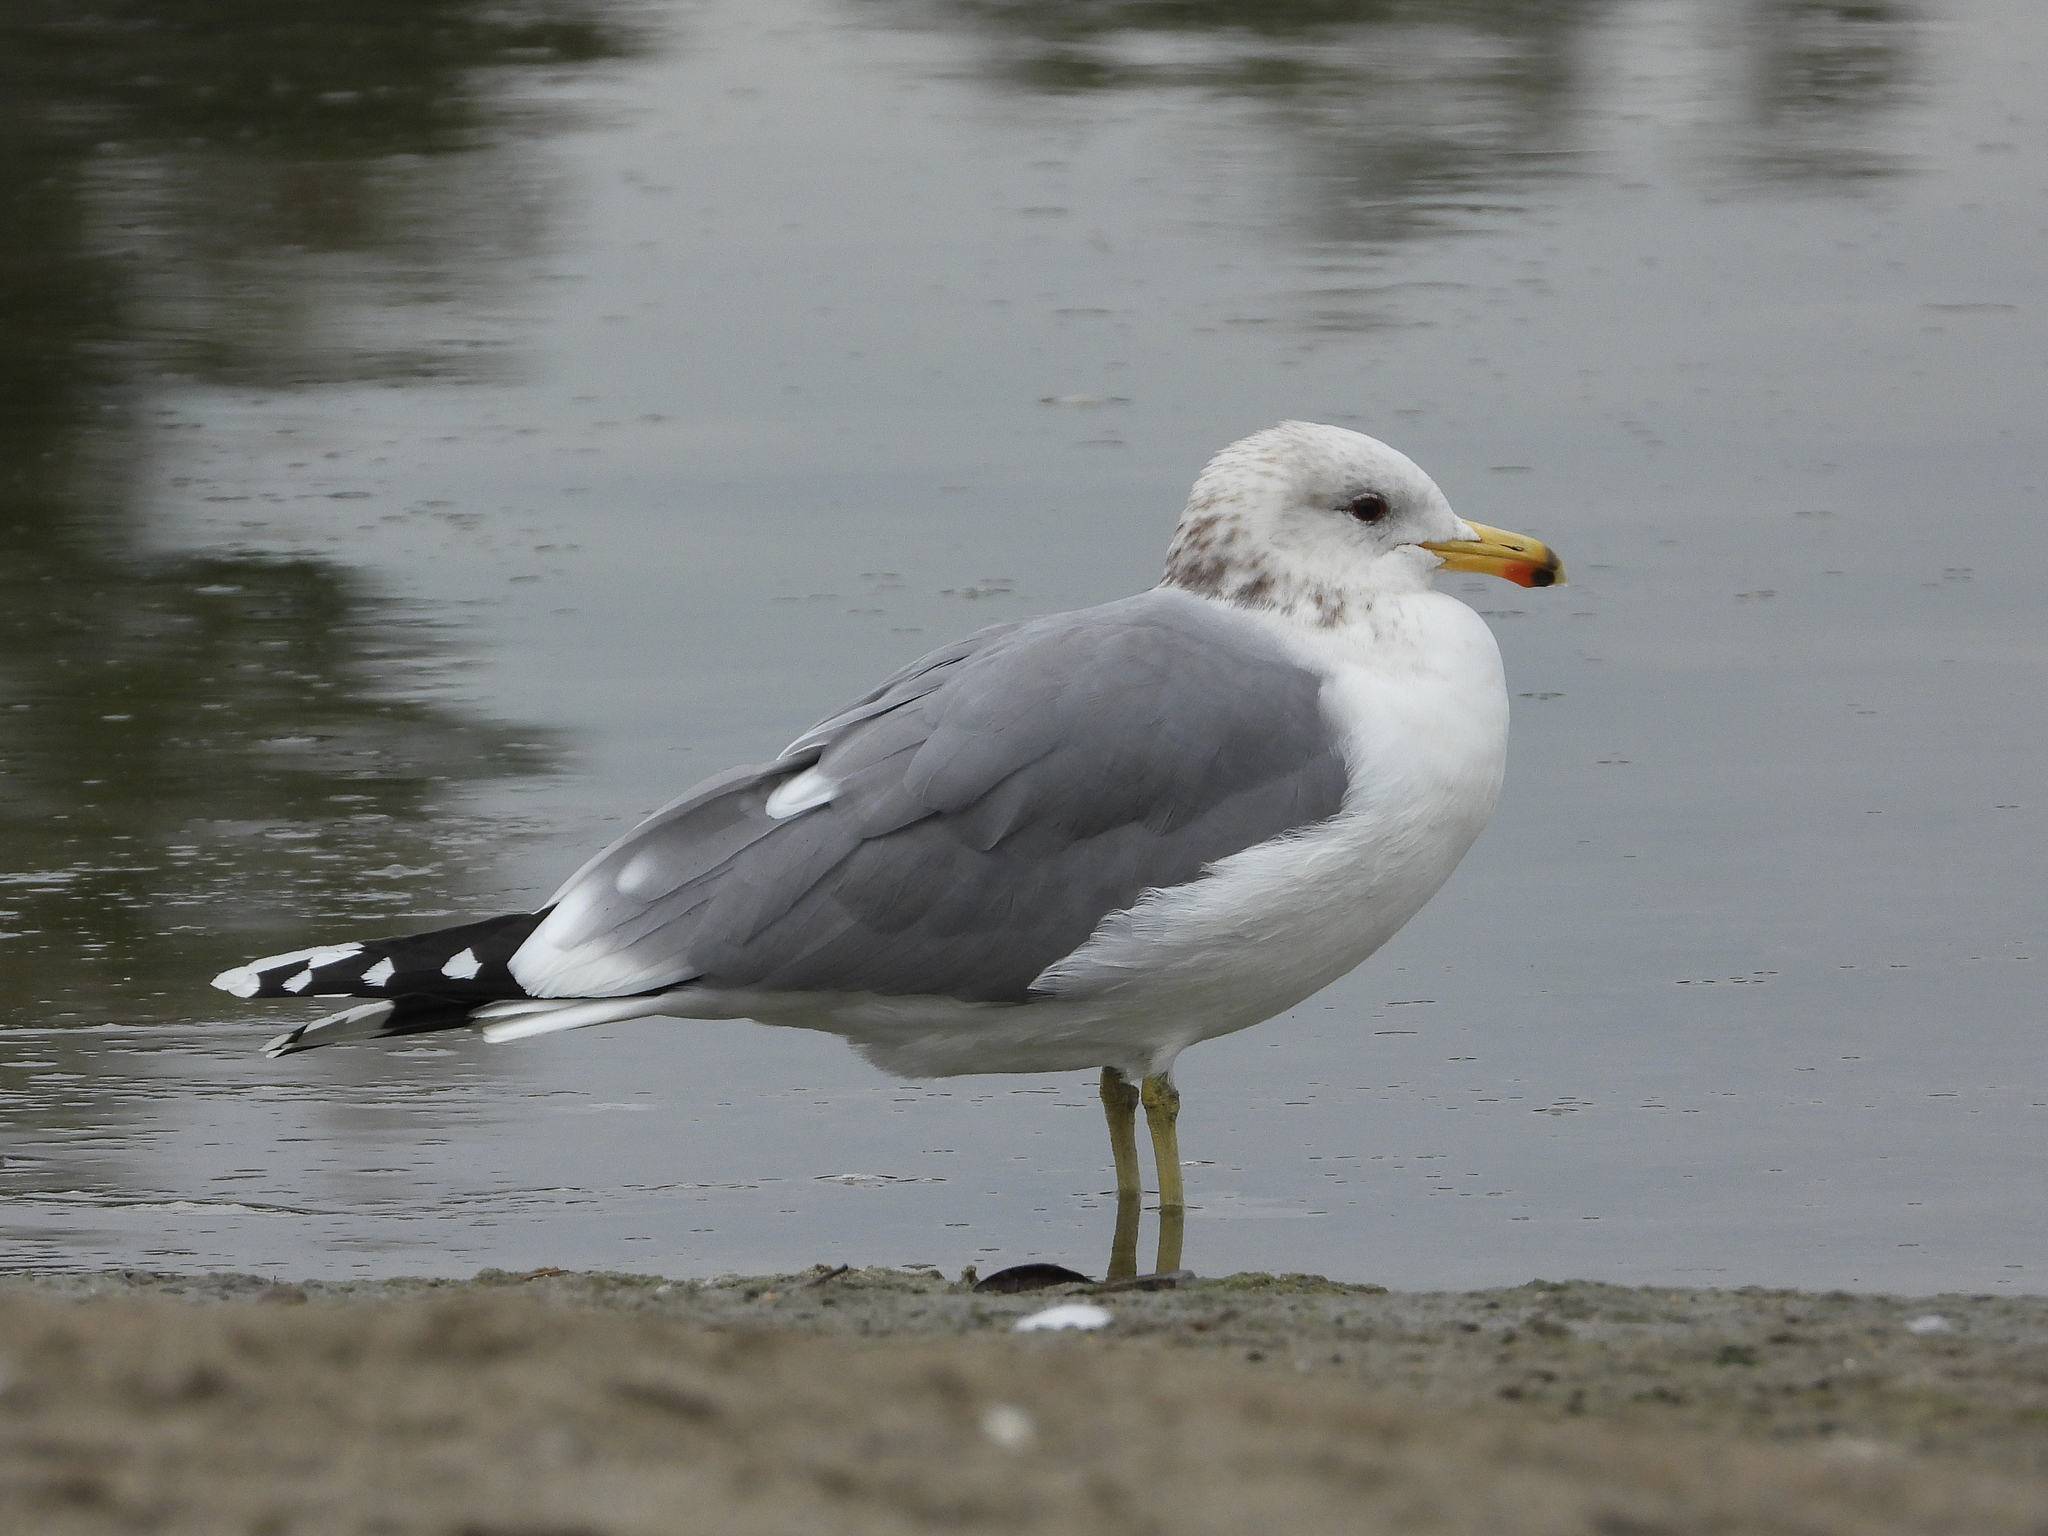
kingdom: Animalia
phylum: Chordata
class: Aves
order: Charadriiformes
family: Laridae
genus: Larus
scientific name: Larus californicus
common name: California gull
